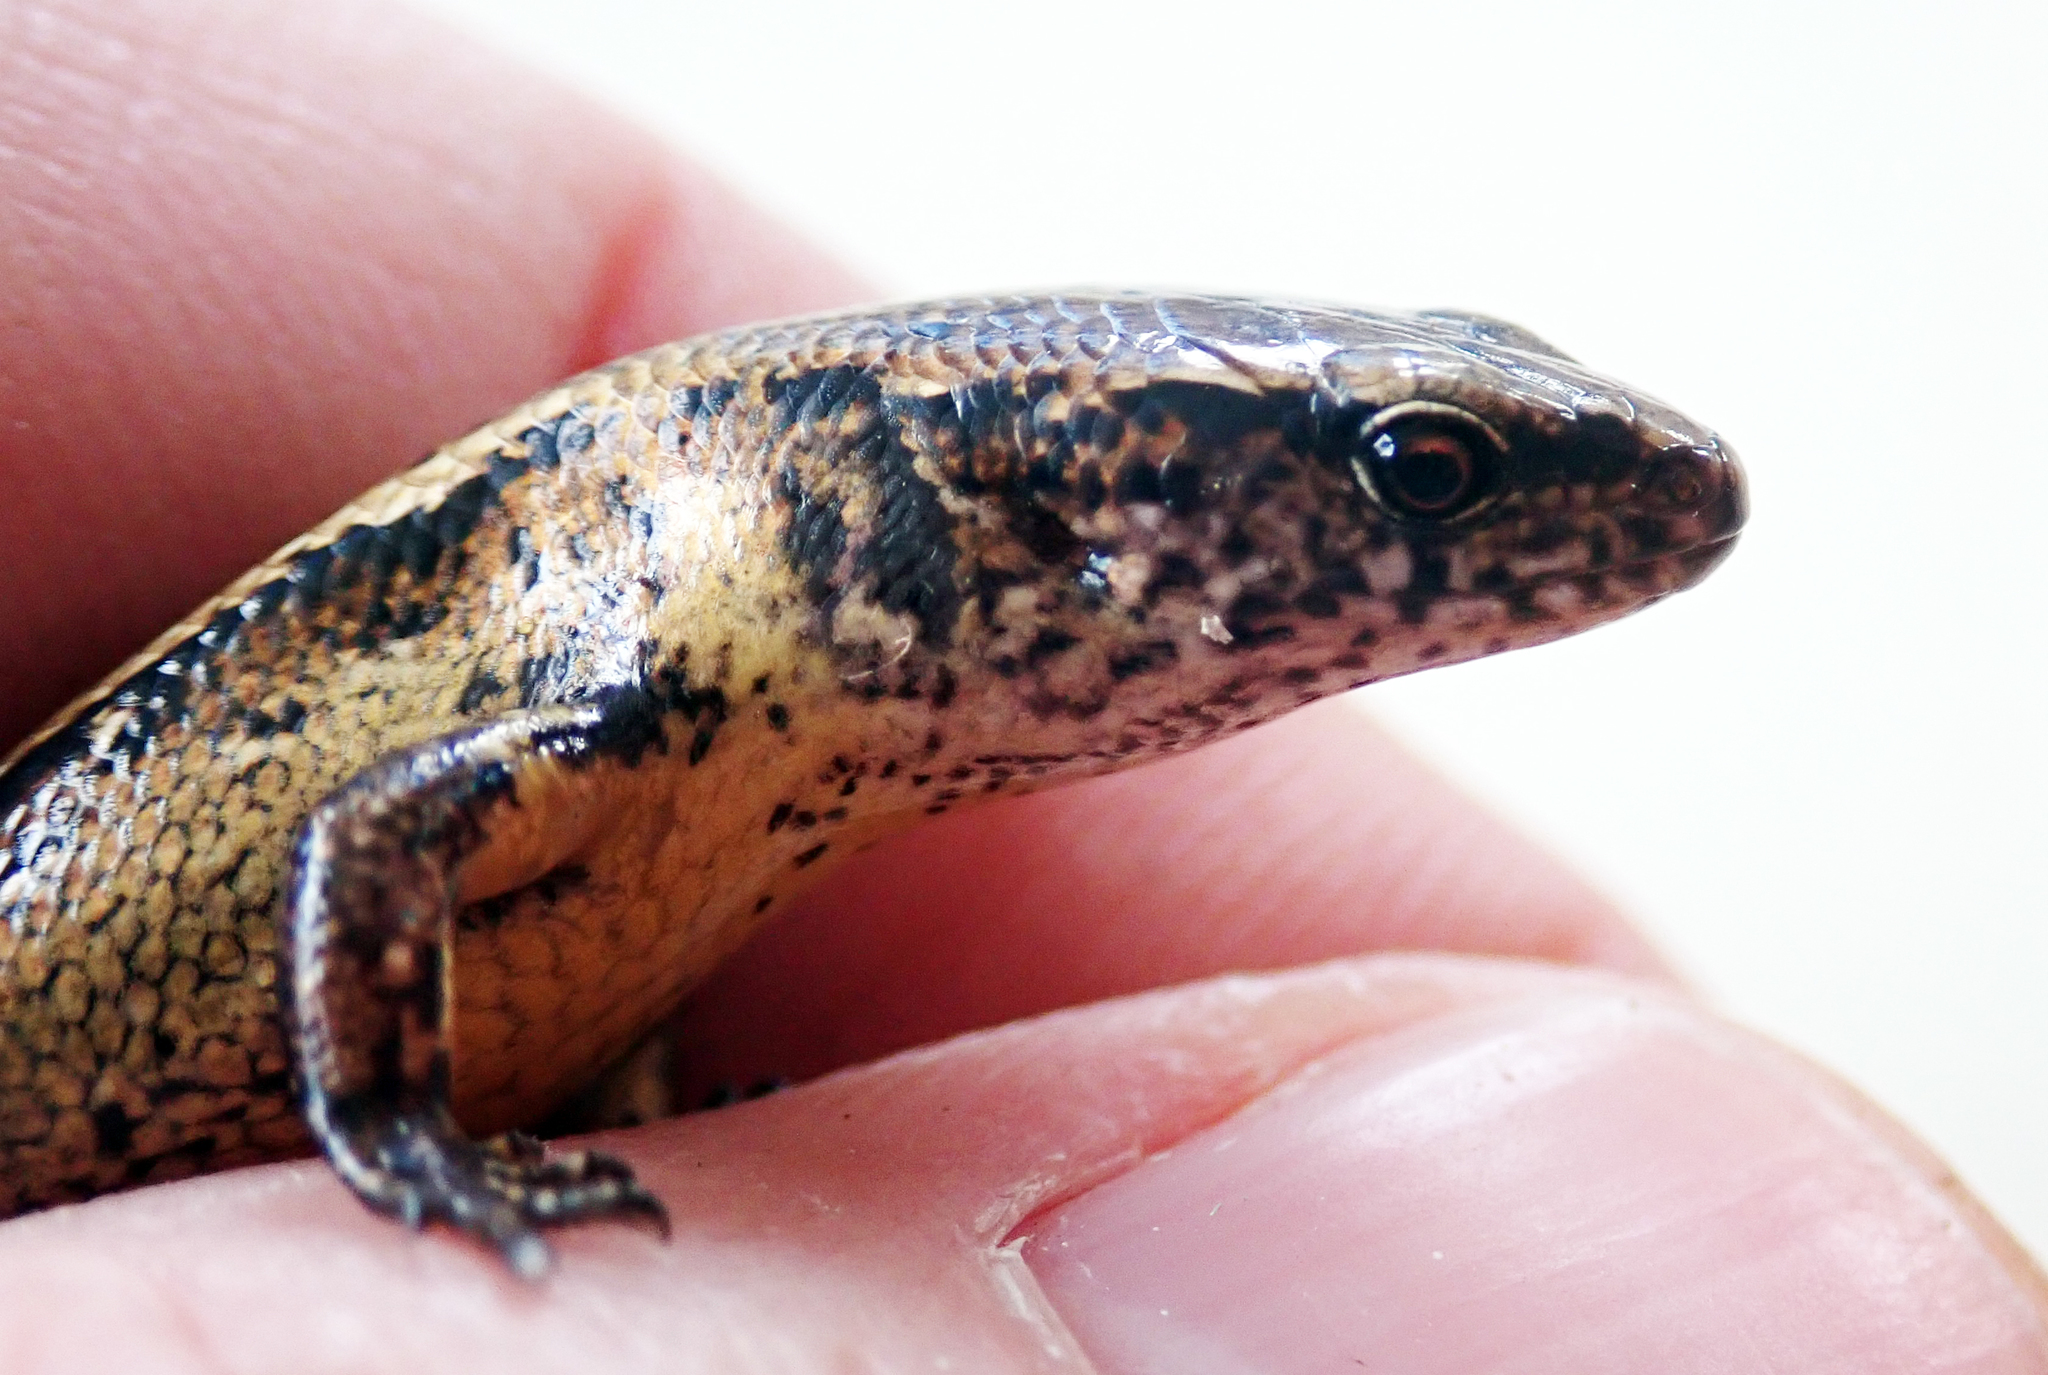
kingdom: Animalia
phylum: Chordata
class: Squamata
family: Scincidae
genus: Oligosoma
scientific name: Oligosoma aeneum
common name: Copper skink
